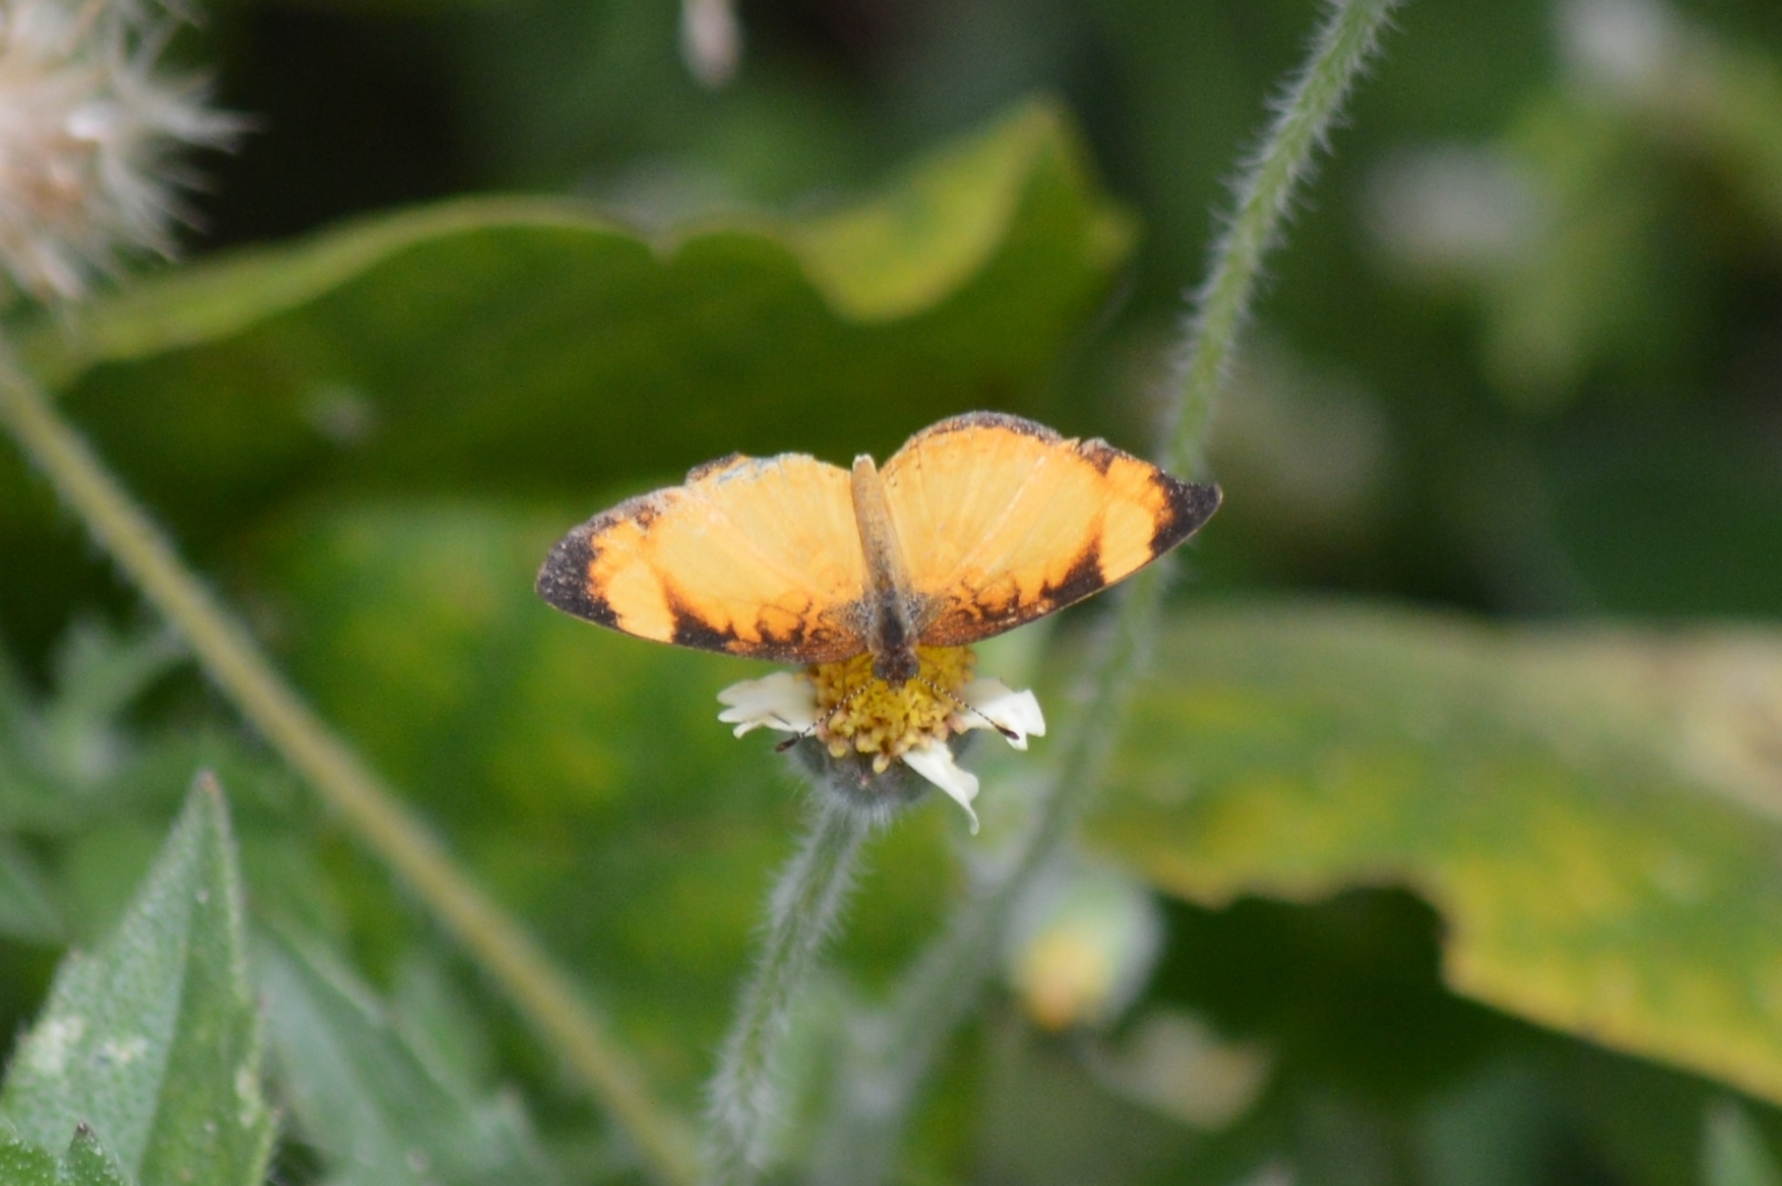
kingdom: Animalia
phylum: Arthropoda
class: Insecta
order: Lepidoptera
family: Nymphalidae
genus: Tegosa
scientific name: Tegosa claudina
